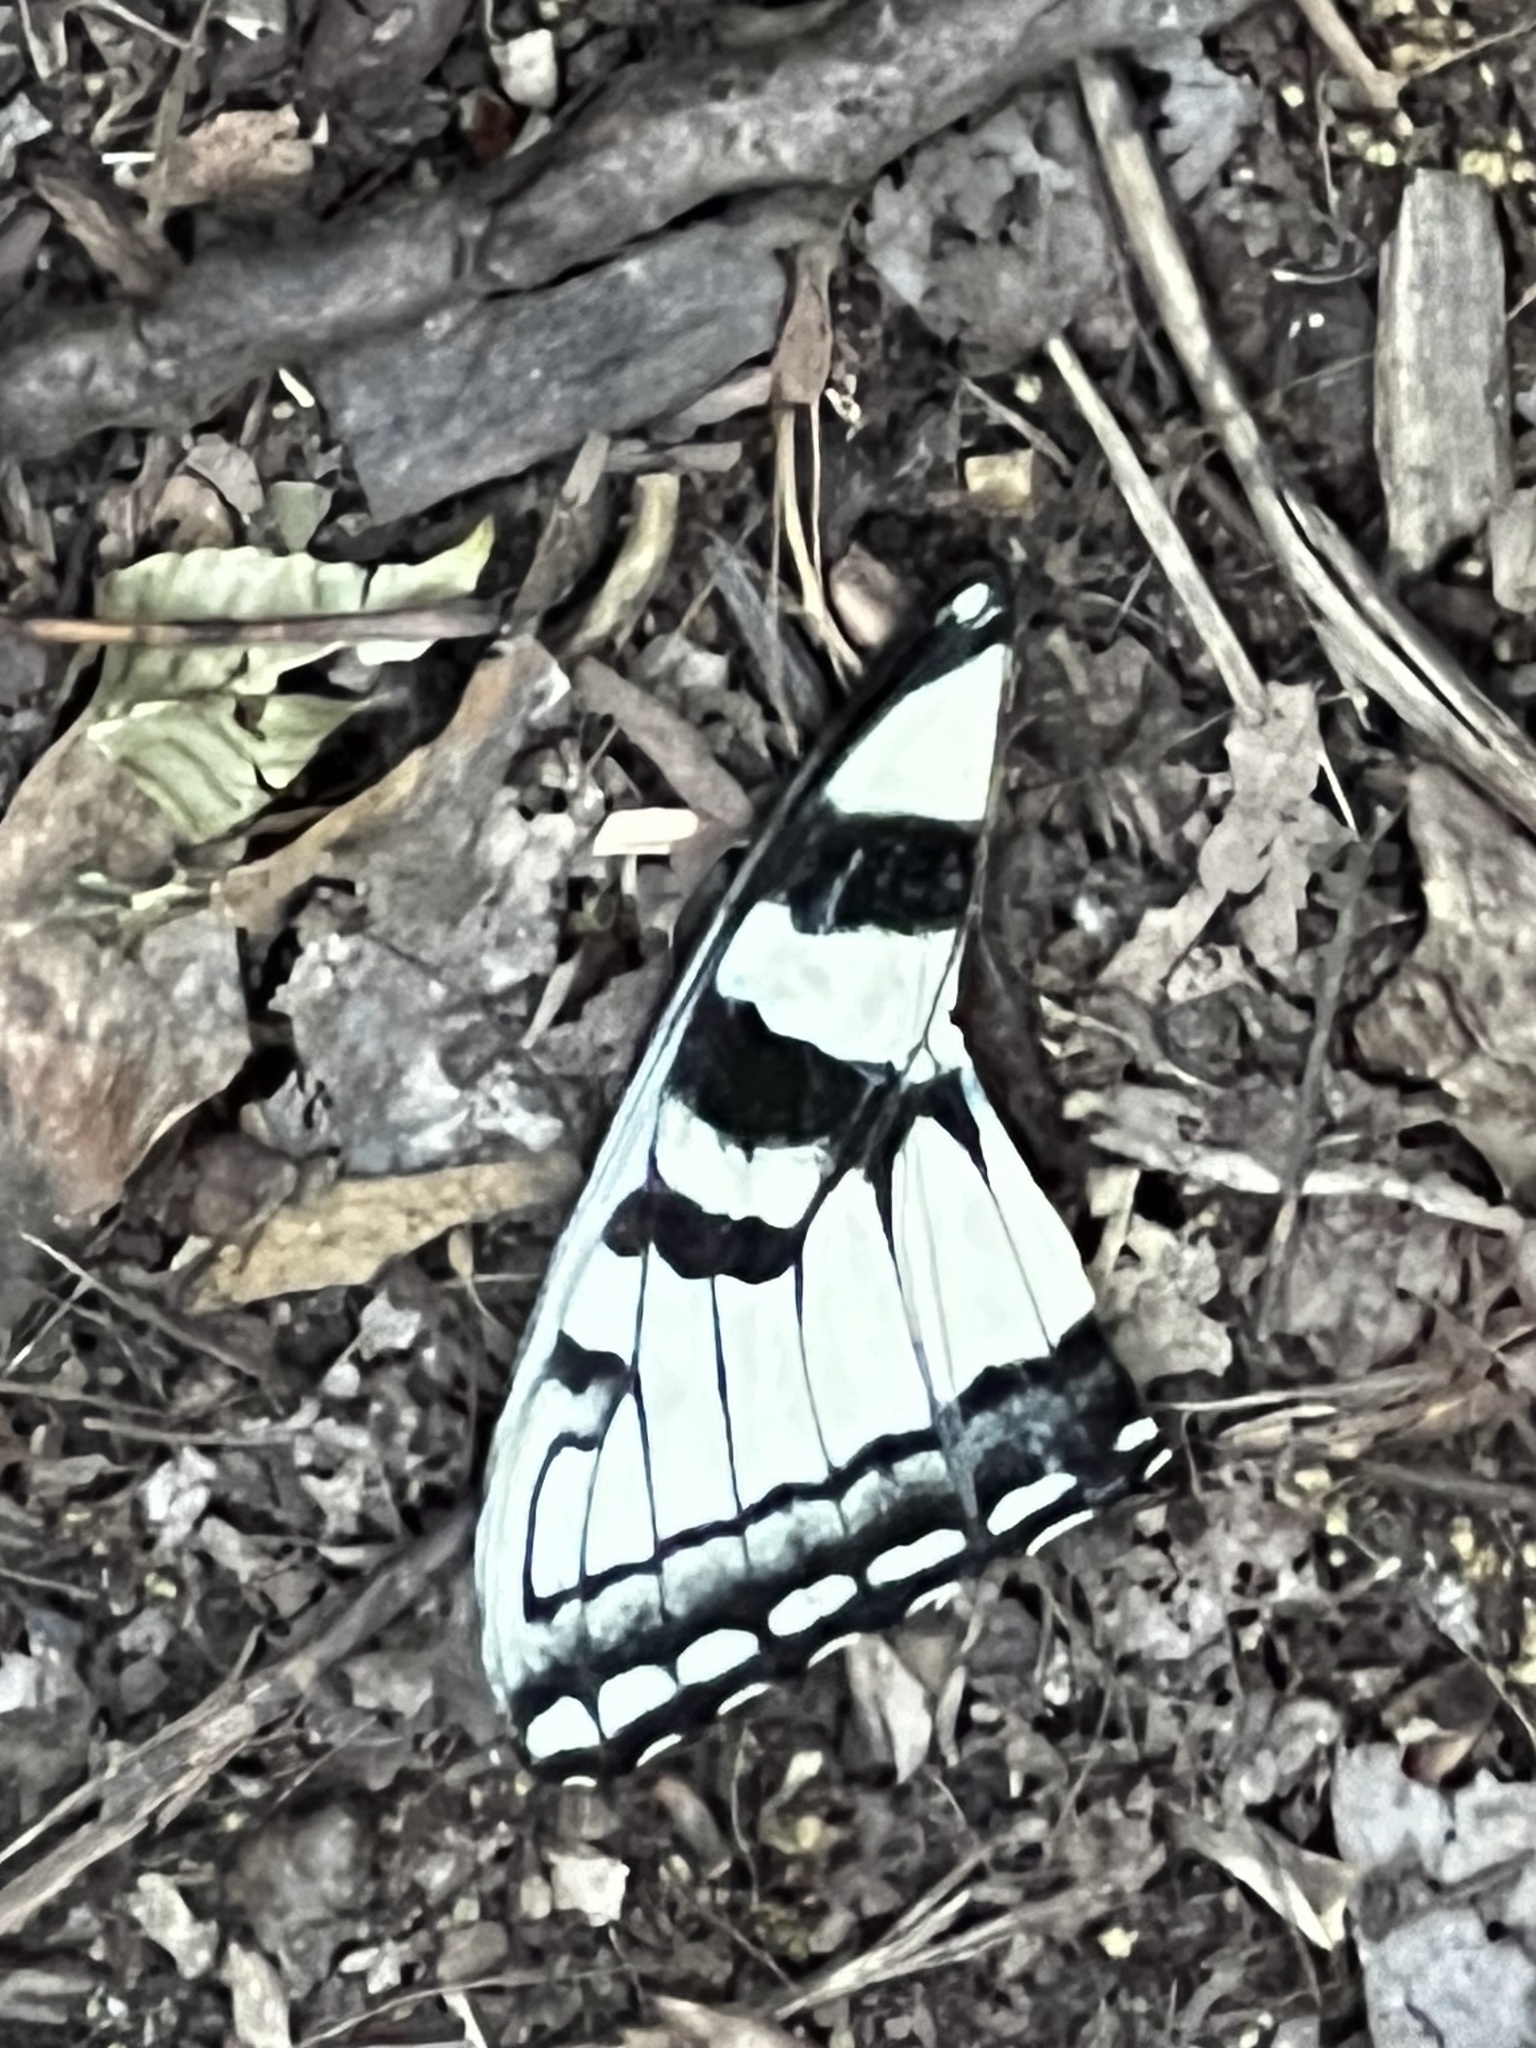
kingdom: Animalia
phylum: Arthropoda
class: Insecta
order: Lepidoptera
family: Papilionidae
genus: Papilio
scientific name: Papilio glaucus
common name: Tiger swallowtail
